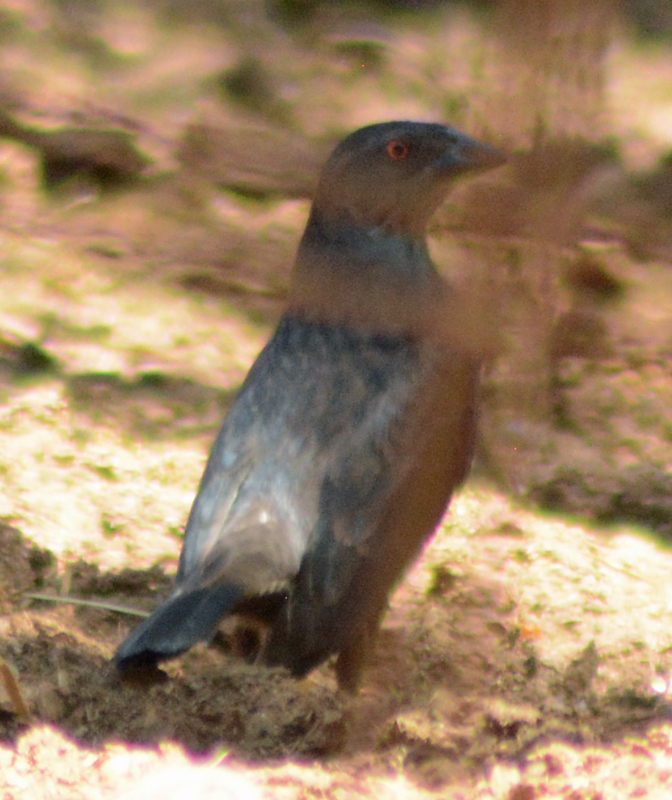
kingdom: Animalia
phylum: Chordata
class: Aves
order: Passeriformes
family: Icteridae
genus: Molothrus
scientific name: Molothrus aeneus
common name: Bronzed cowbird
